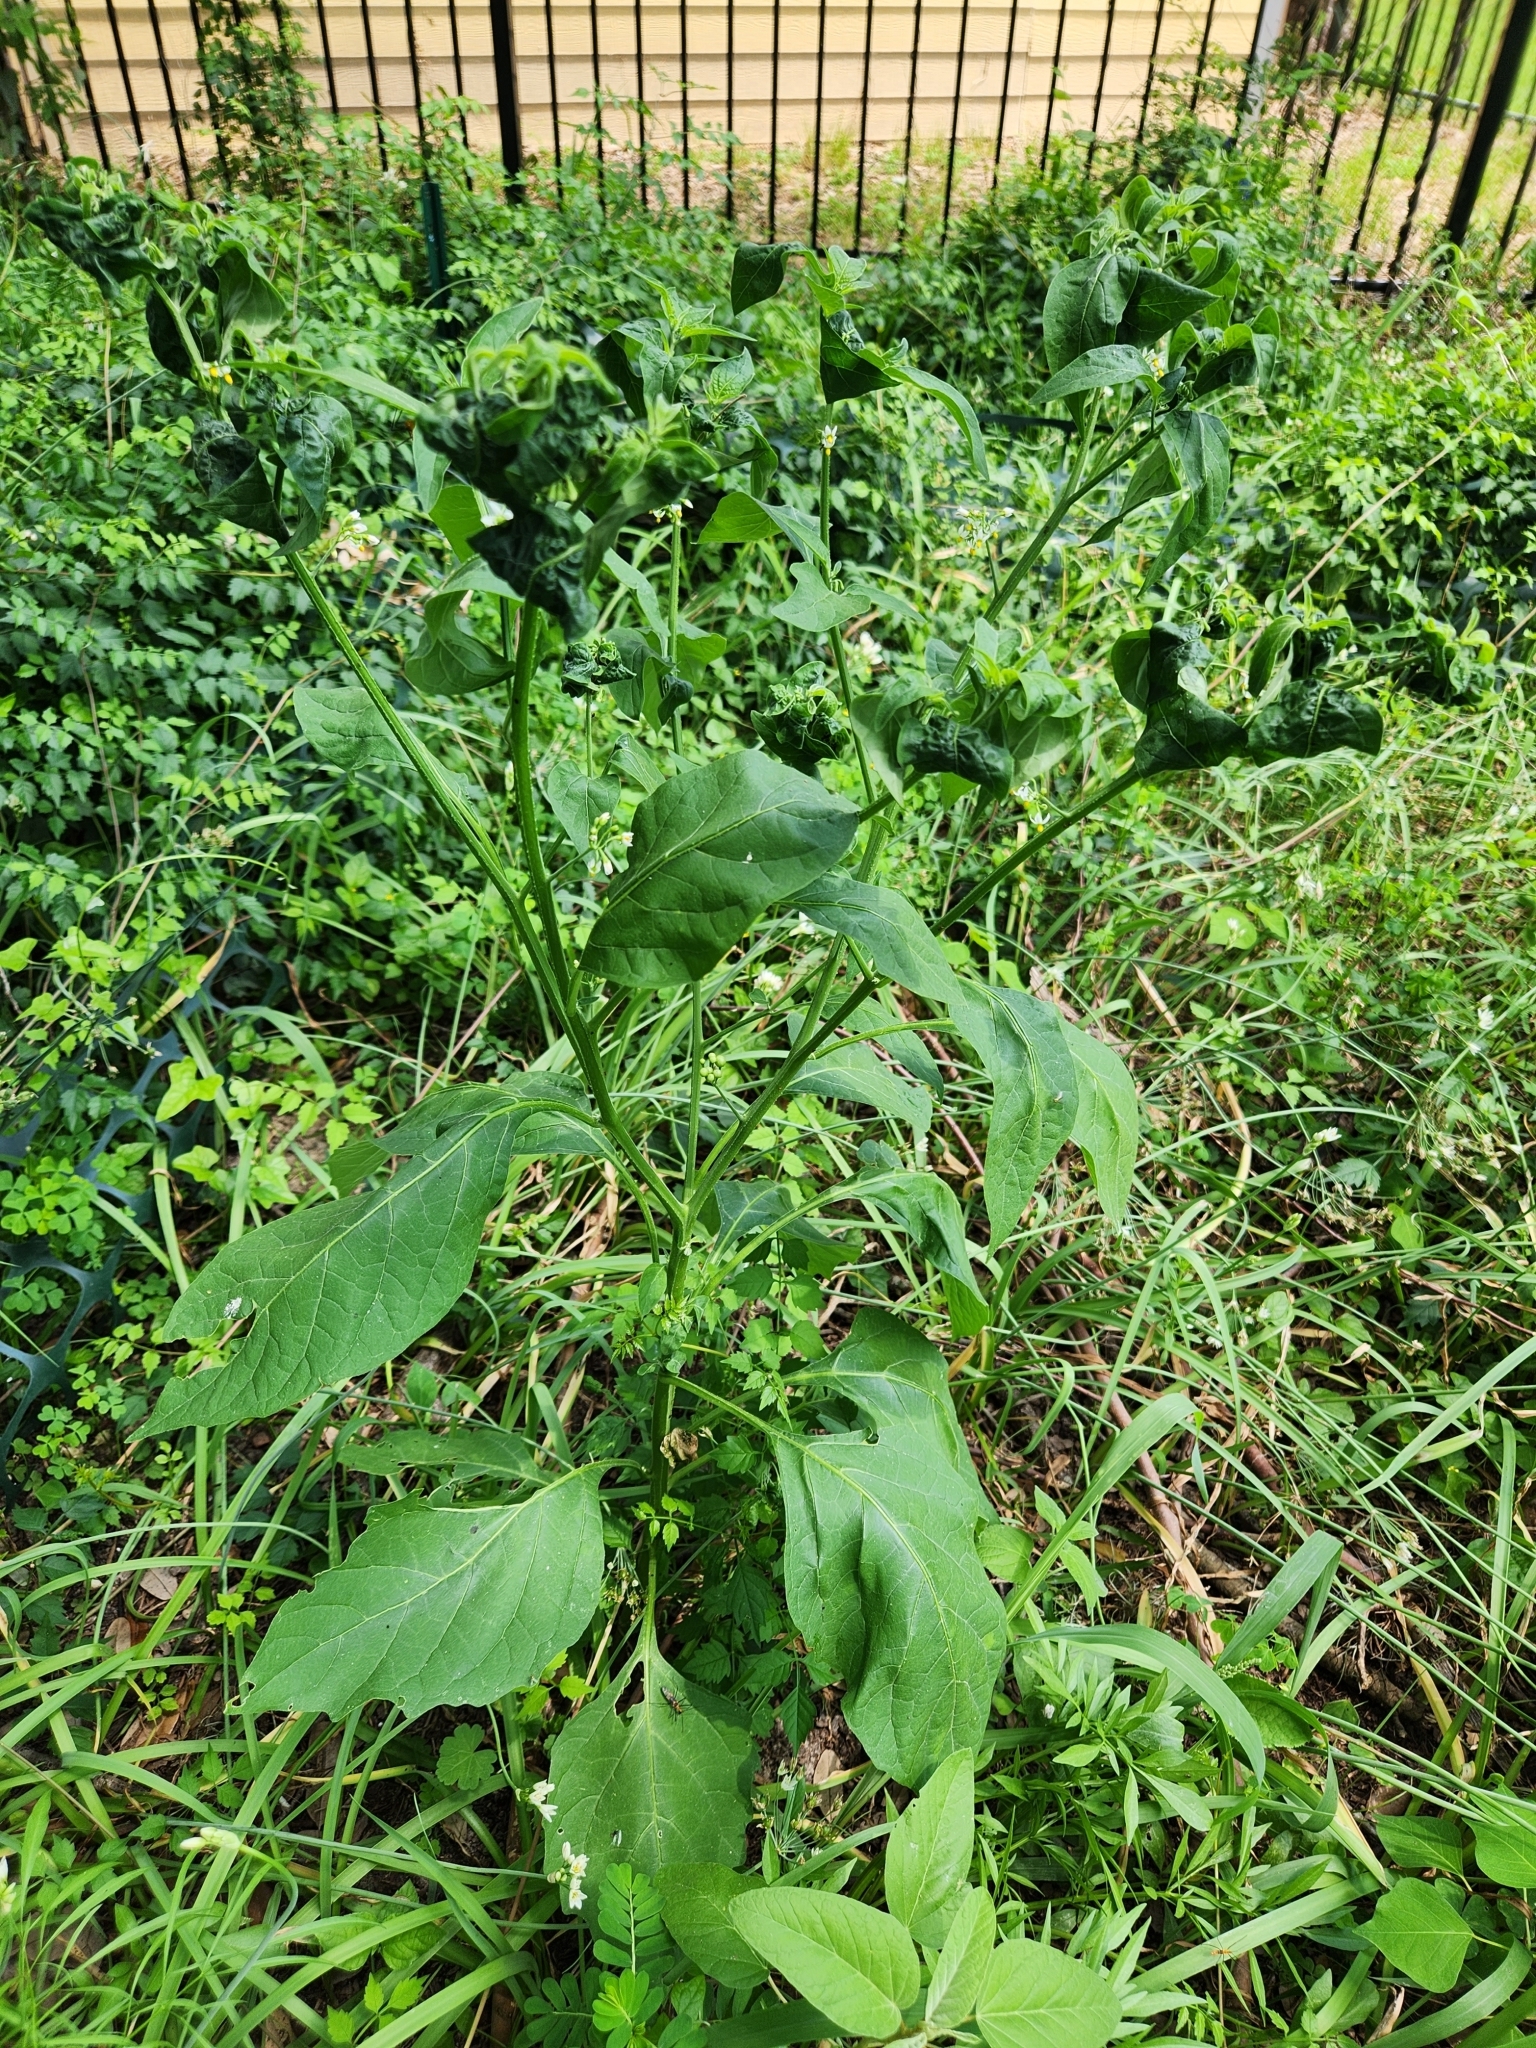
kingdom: Plantae
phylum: Tracheophyta
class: Magnoliopsida
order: Solanales
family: Solanaceae
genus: Solanum
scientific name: Solanum americanum
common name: American black nightshade
